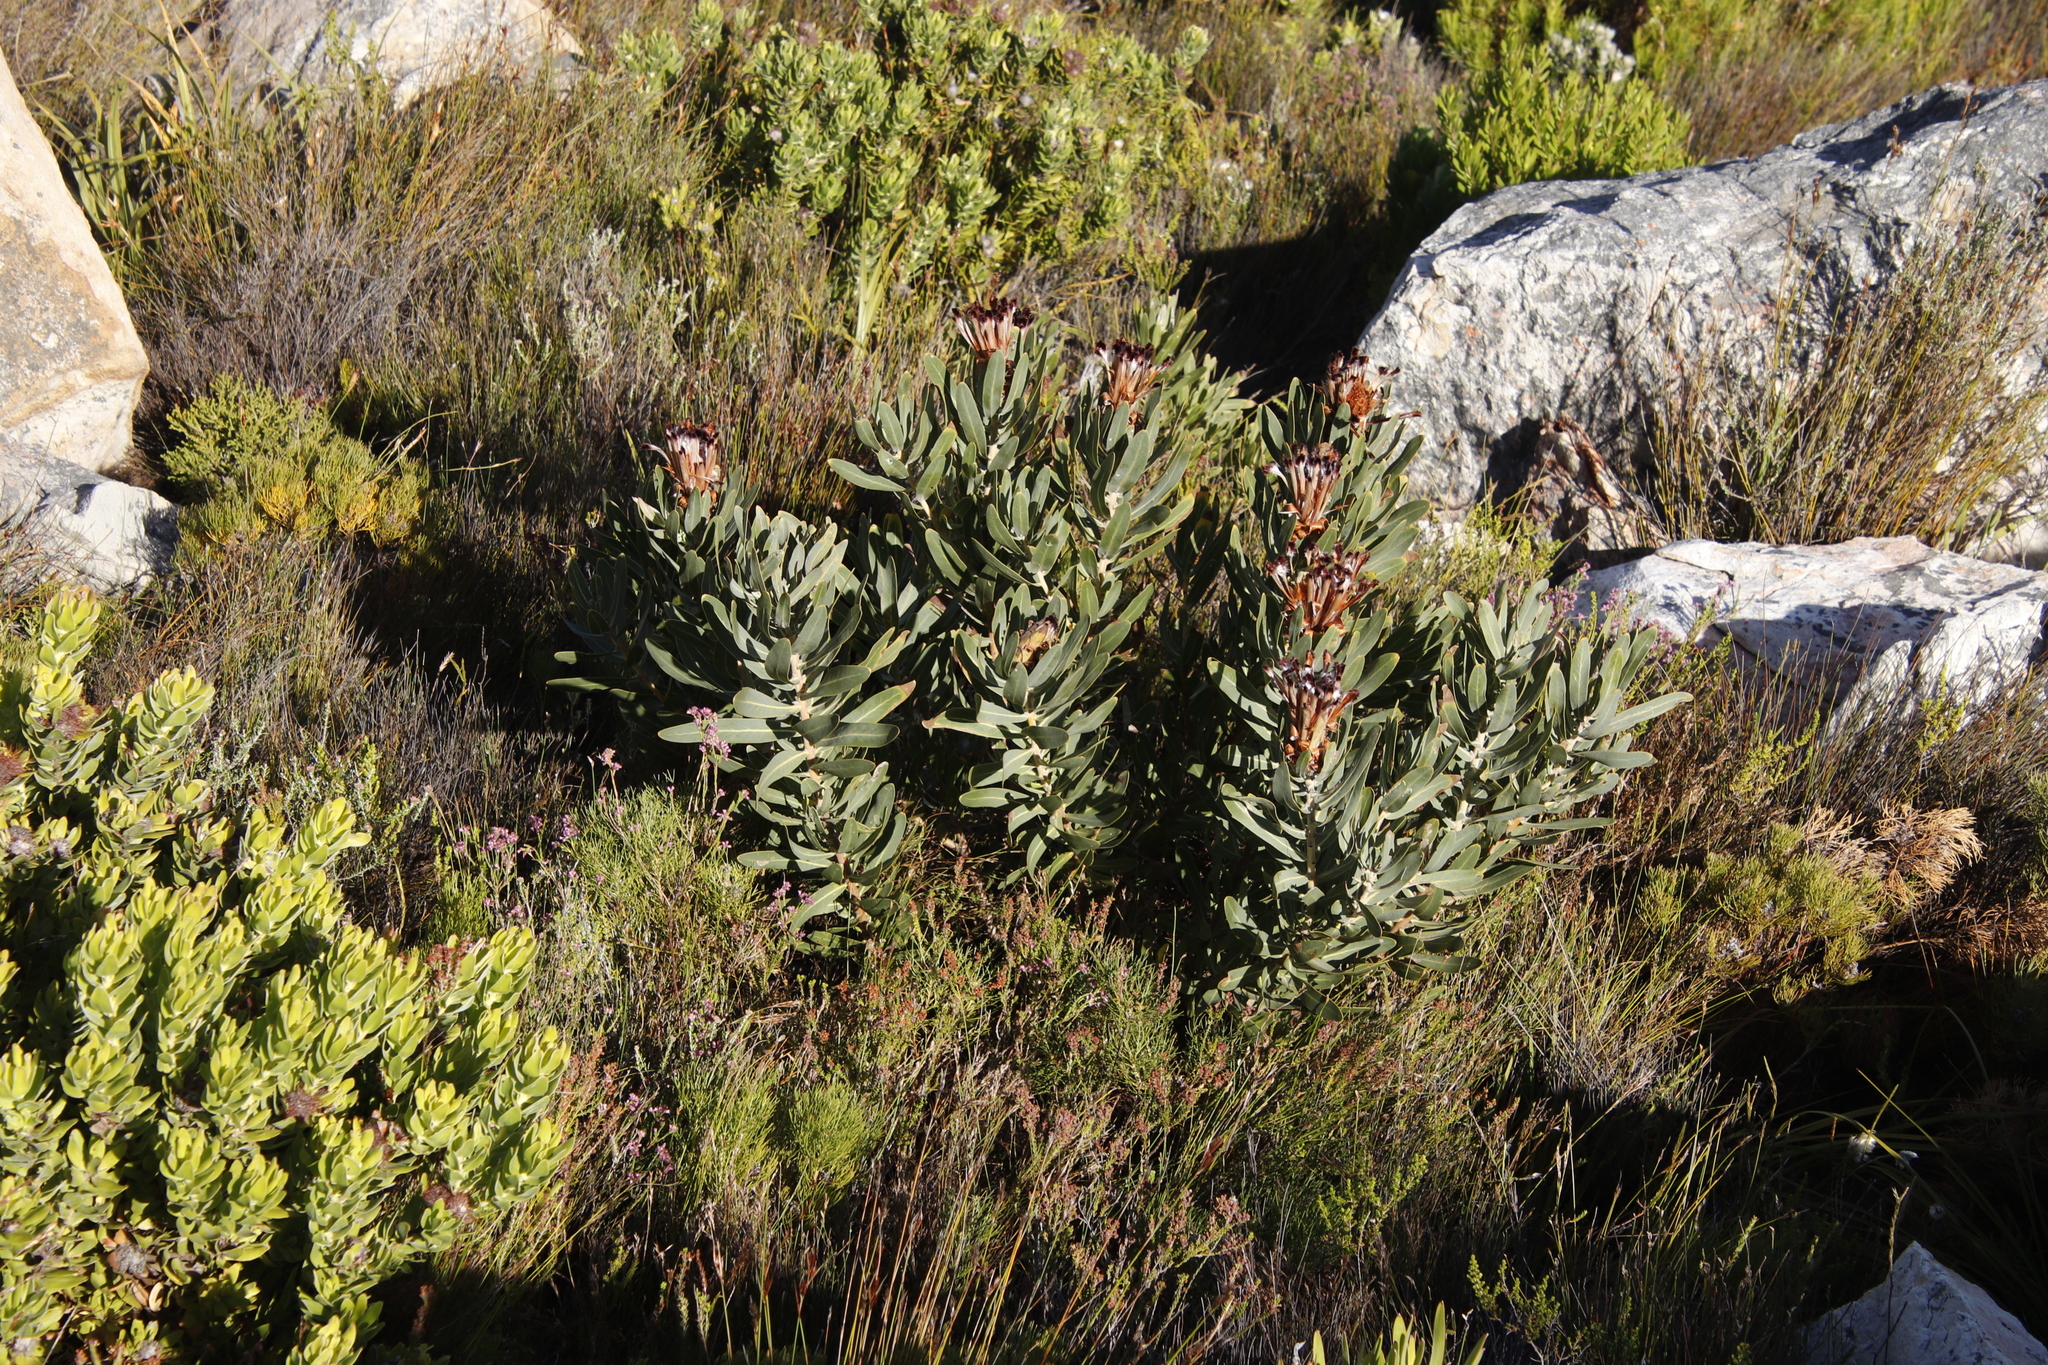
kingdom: Plantae
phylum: Tracheophyta
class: Magnoliopsida
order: Proteales
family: Proteaceae
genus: Protea
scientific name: Protea laurifolia
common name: Grey-leaf sugarbsh
